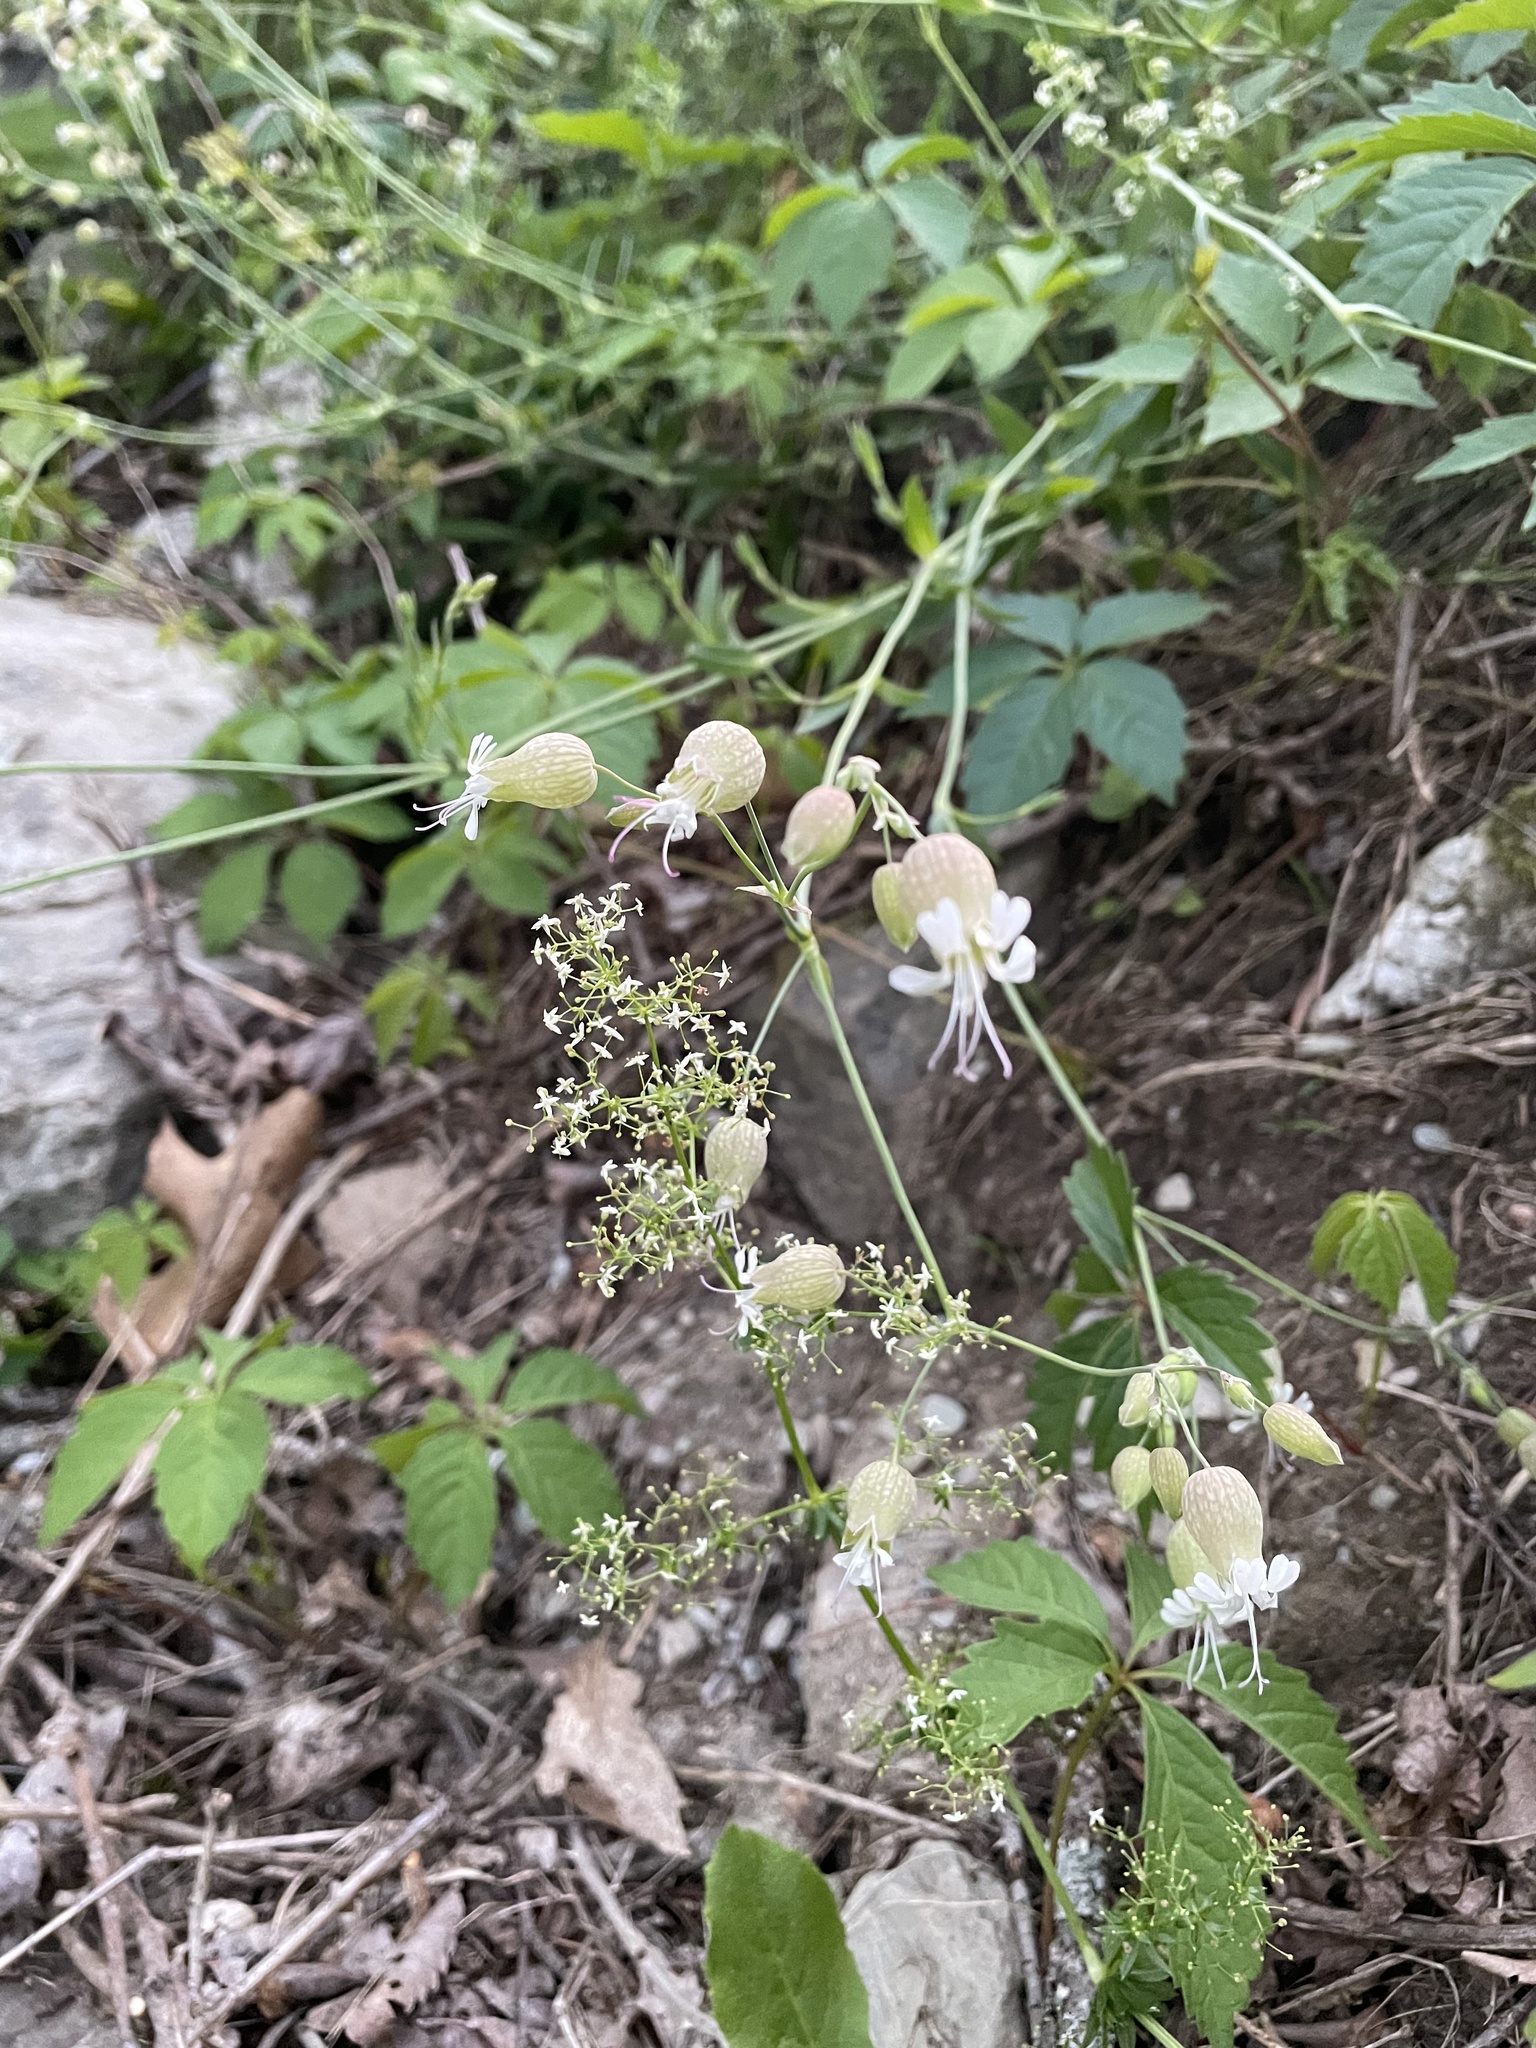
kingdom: Plantae
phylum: Tracheophyta
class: Magnoliopsida
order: Caryophyllales
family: Caryophyllaceae
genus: Silene
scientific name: Silene vulgaris
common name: Bladder campion
